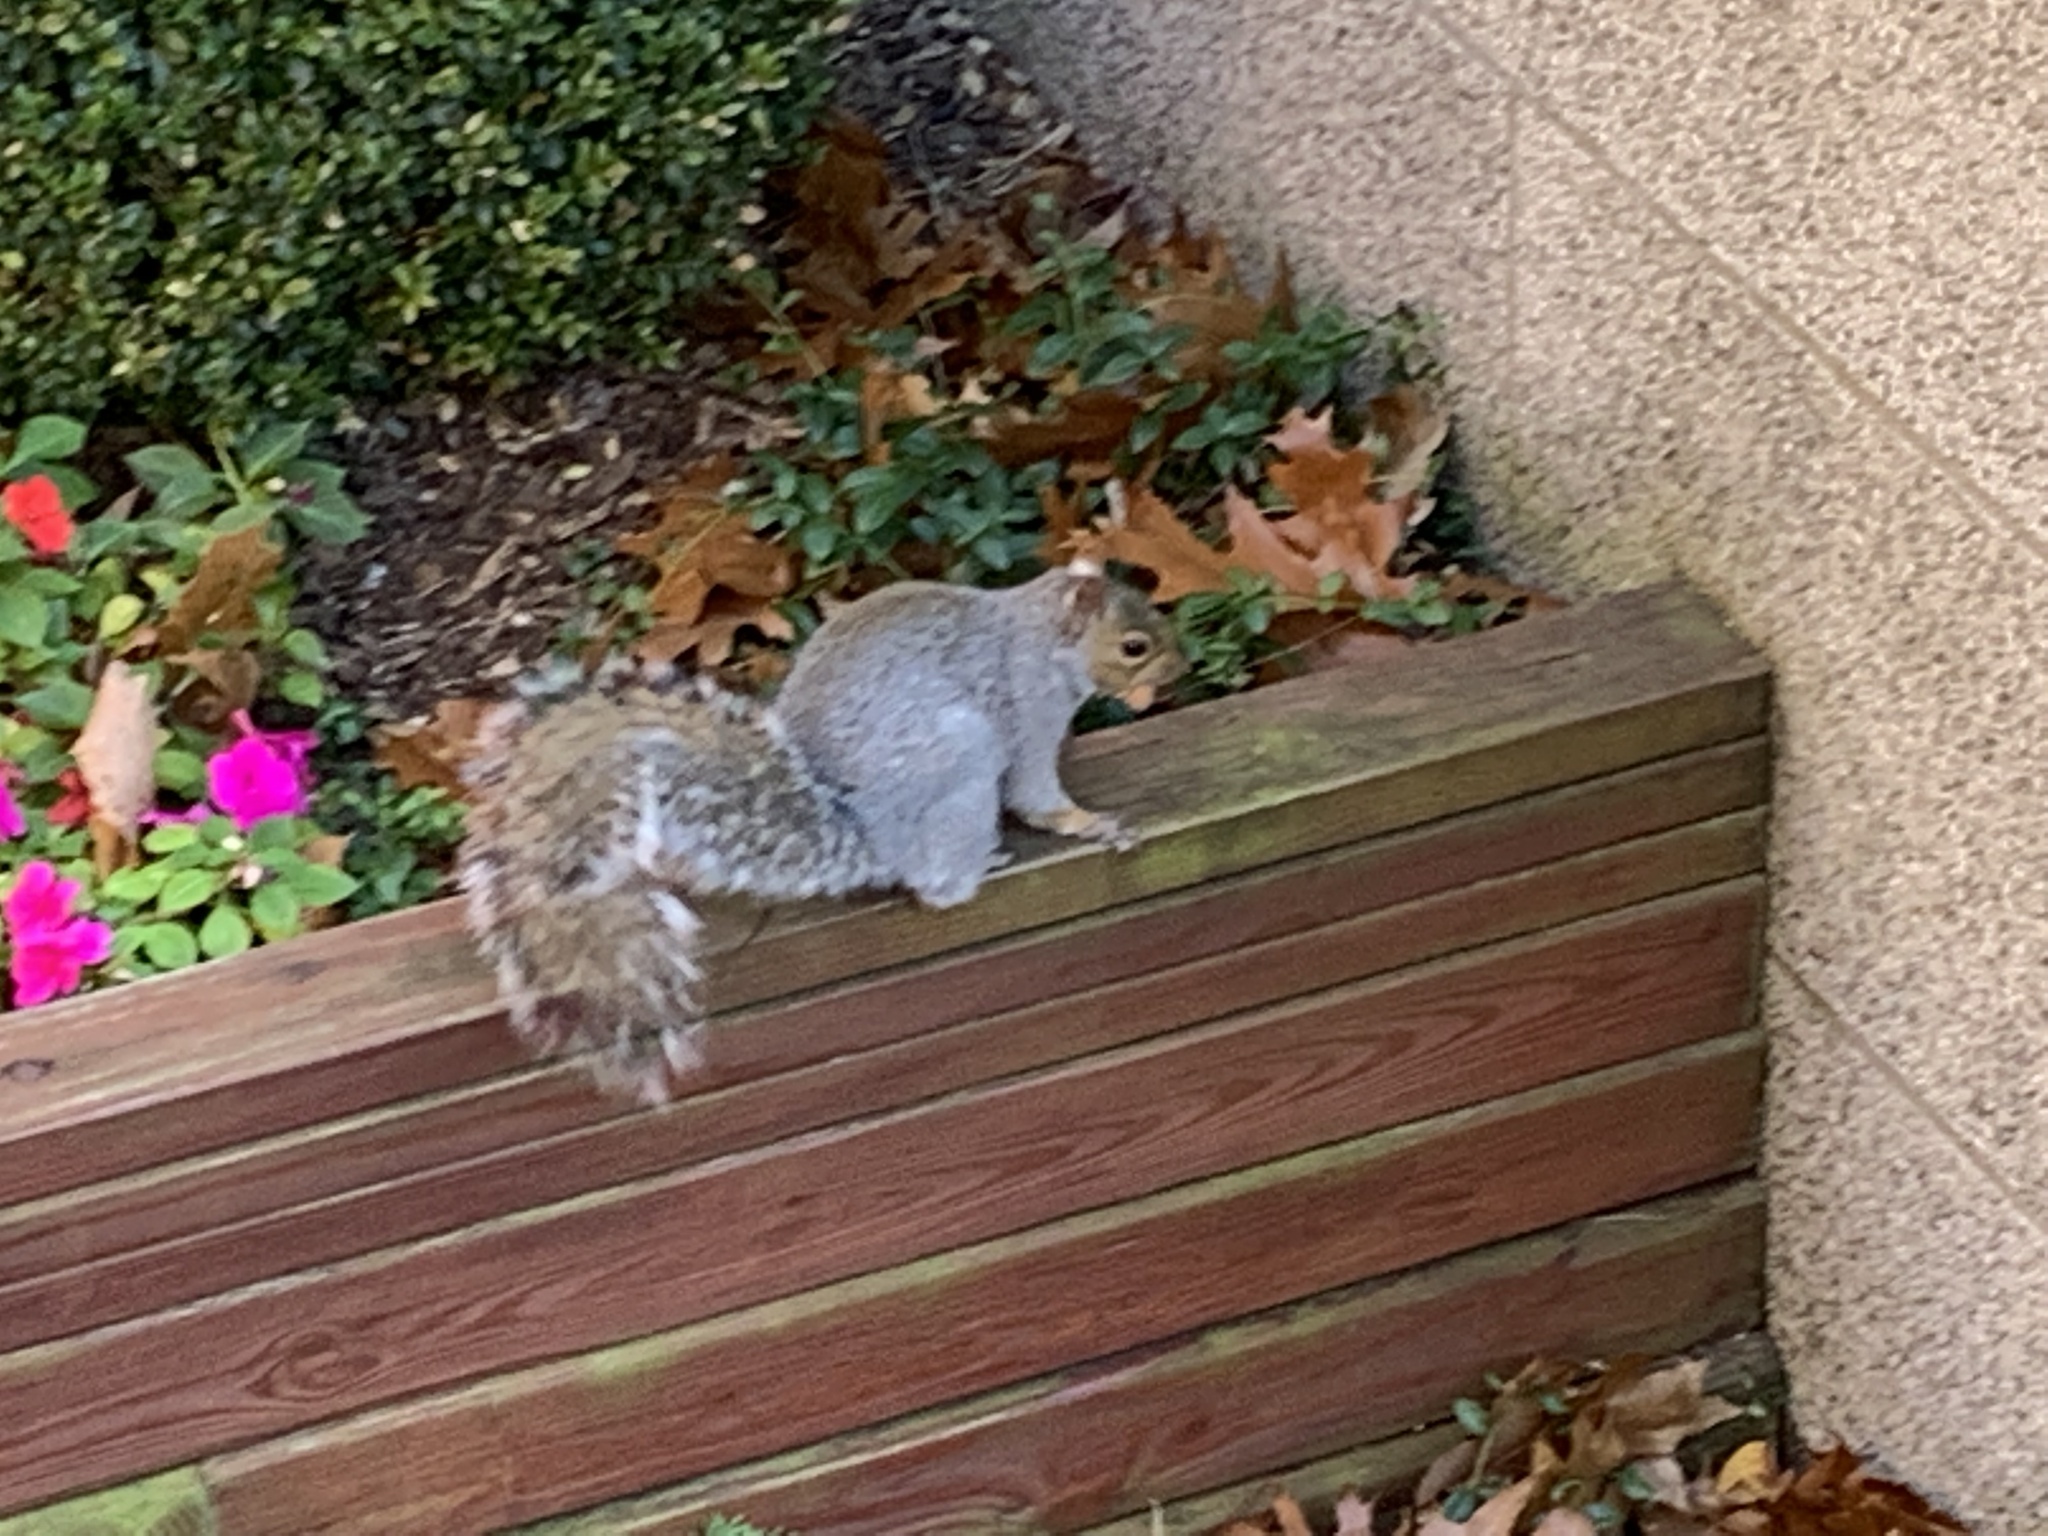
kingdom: Animalia
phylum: Chordata
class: Mammalia
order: Rodentia
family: Sciuridae
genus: Sciurus
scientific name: Sciurus carolinensis
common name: Eastern gray squirrel
